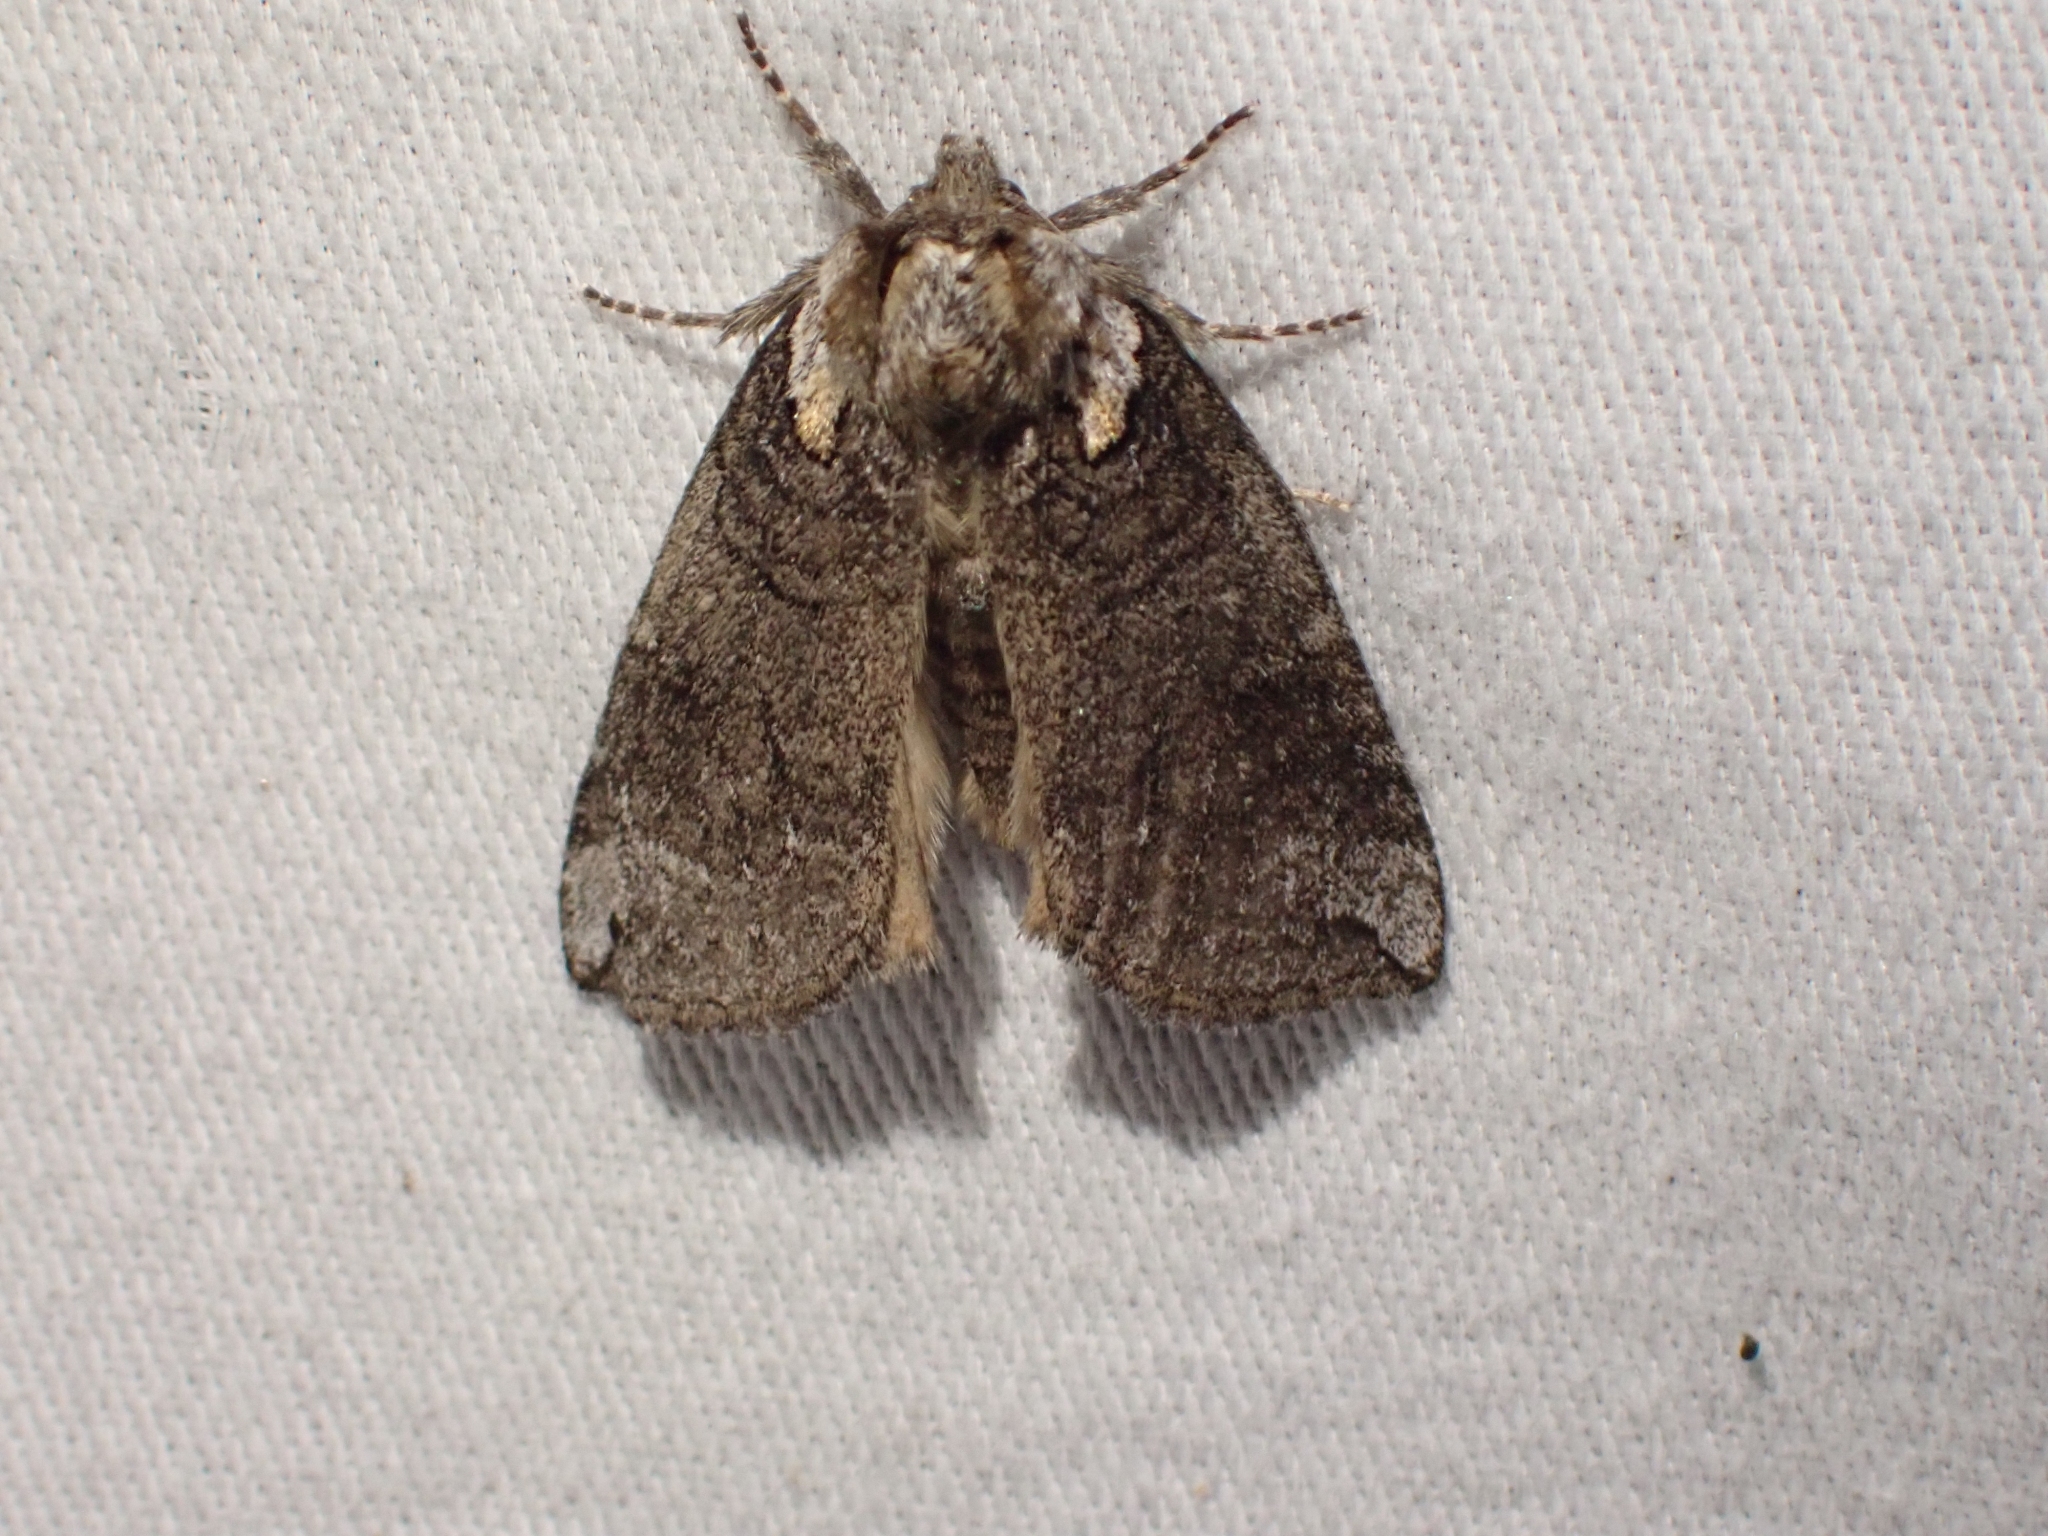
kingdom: Animalia
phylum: Arthropoda
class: Insecta
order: Lepidoptera
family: Drepanidae
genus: Euthyatira
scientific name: Euthyatira semicircularis
